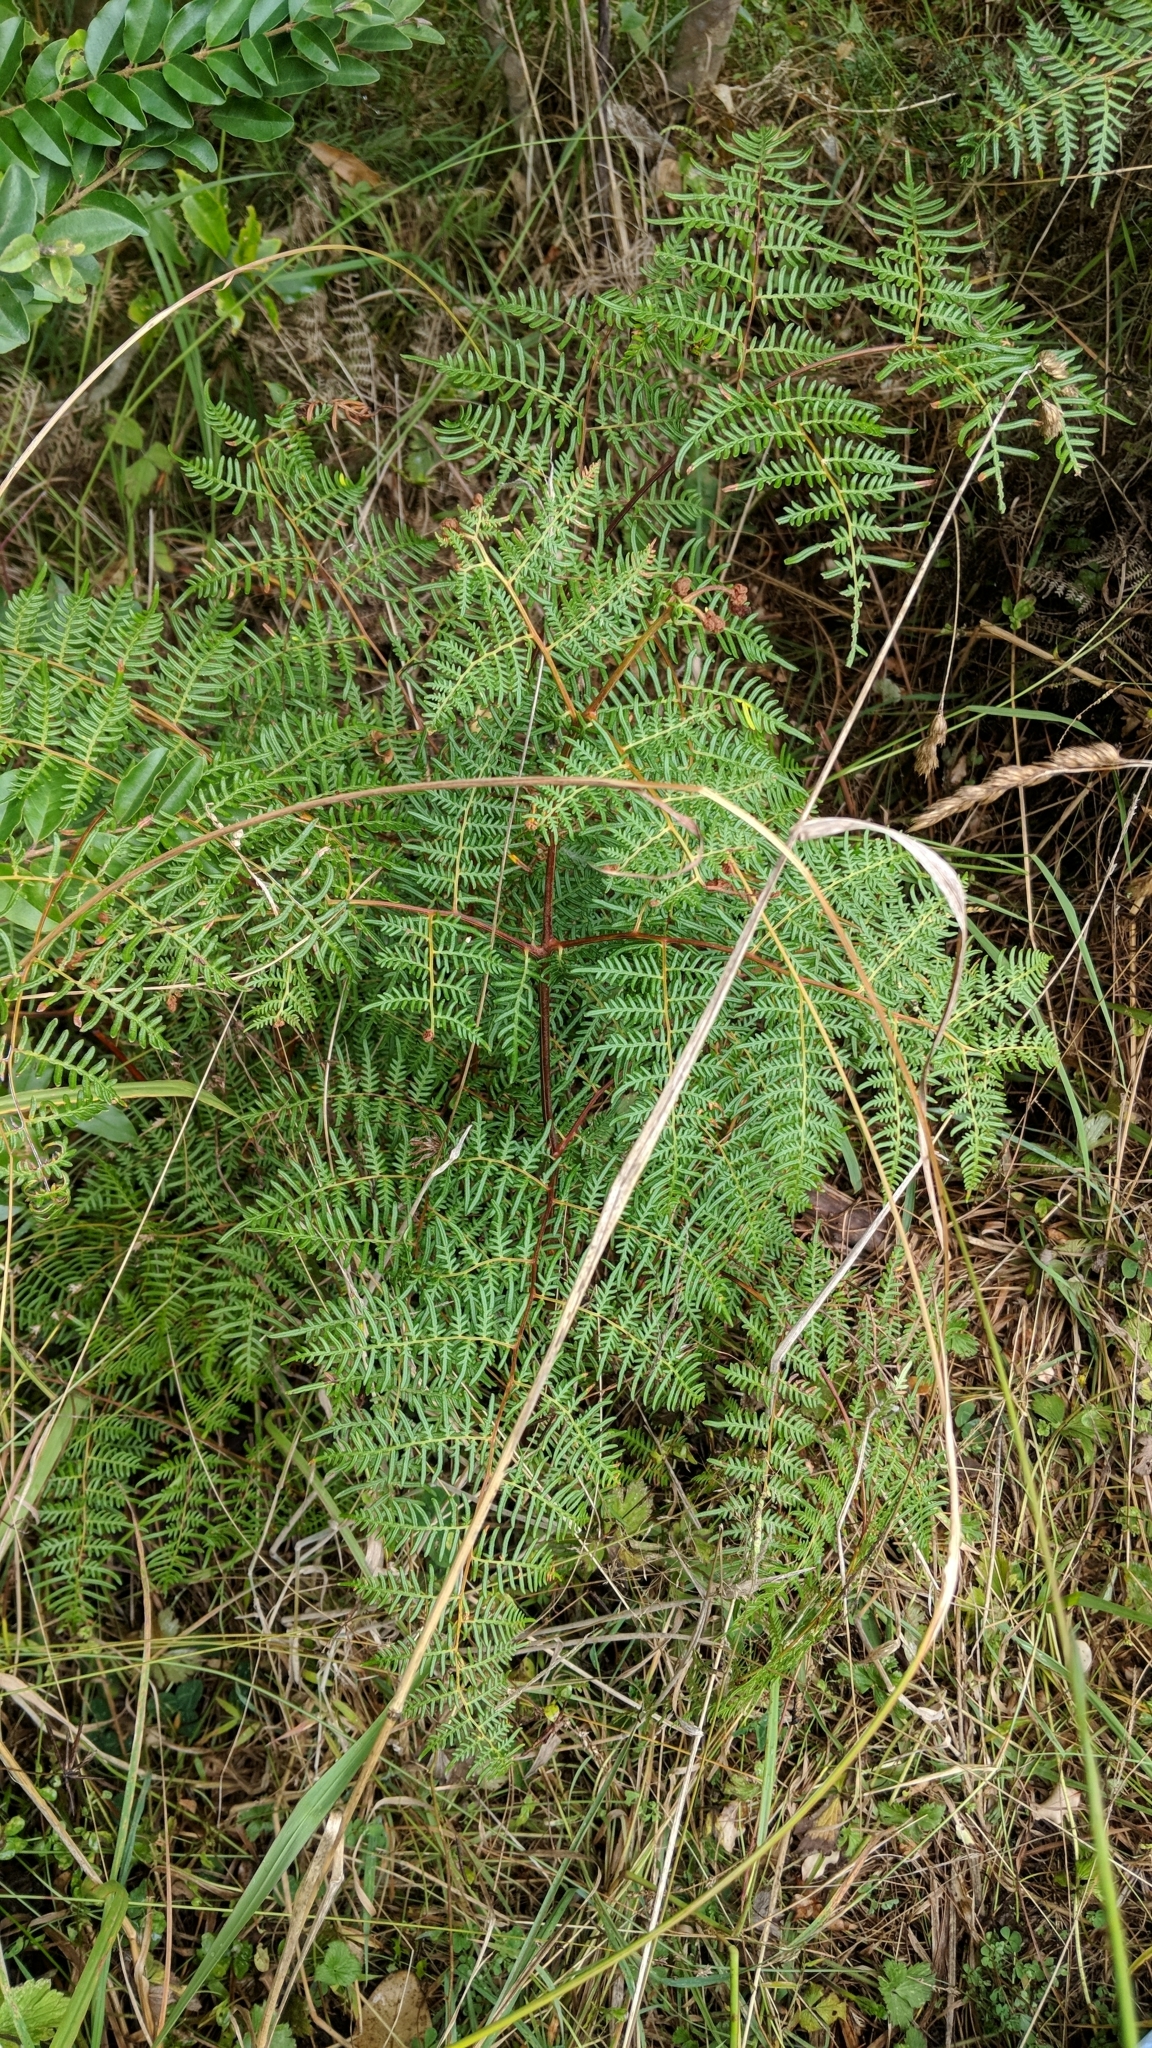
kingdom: Plantae
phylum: Tracheophyta
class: Polypodiopsida
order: Polypodiales
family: Dennstaedtiaceae
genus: Pteridium
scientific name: Pteridium esculentum
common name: Bracken fern
